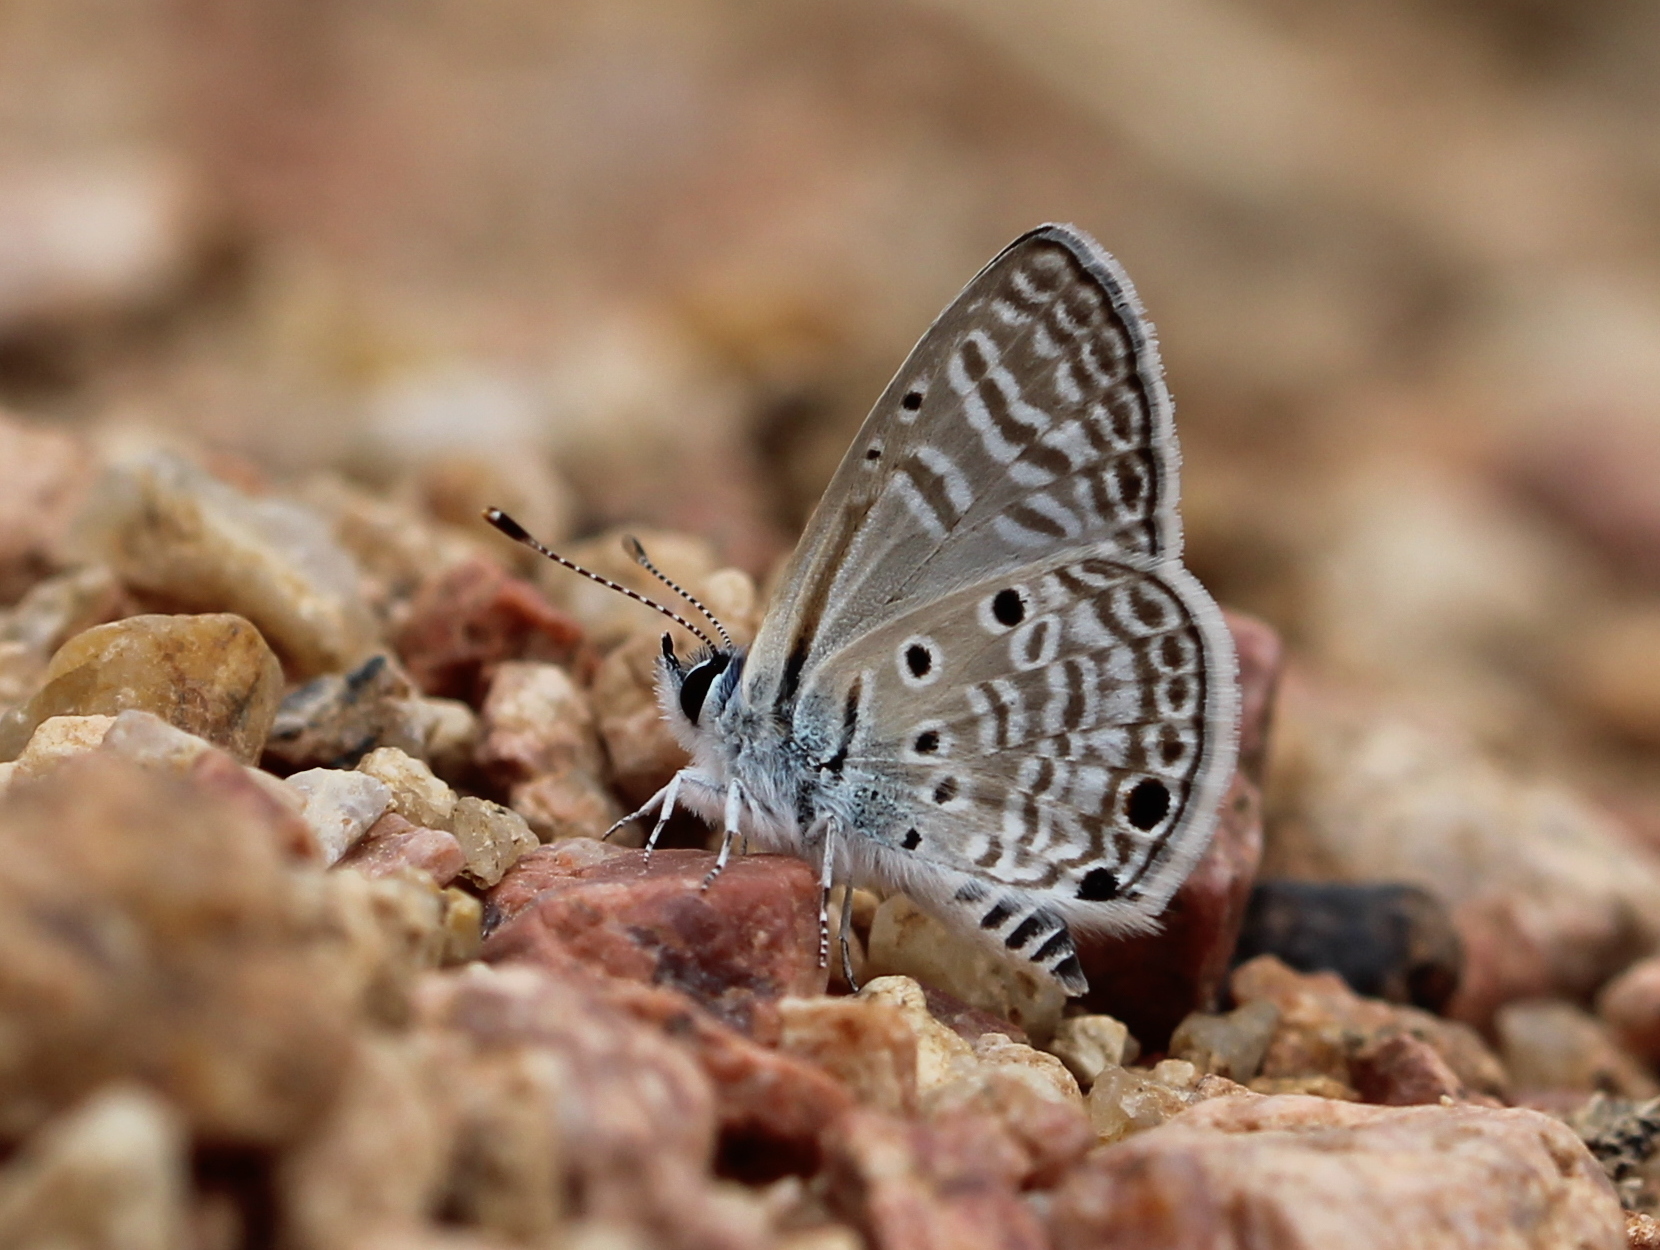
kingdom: Animalia
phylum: Arthropoda
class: Insecta
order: Lepidoptera
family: Lycaenidae
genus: Azanus
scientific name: Azanus ubaldus
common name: Desert babul blue
